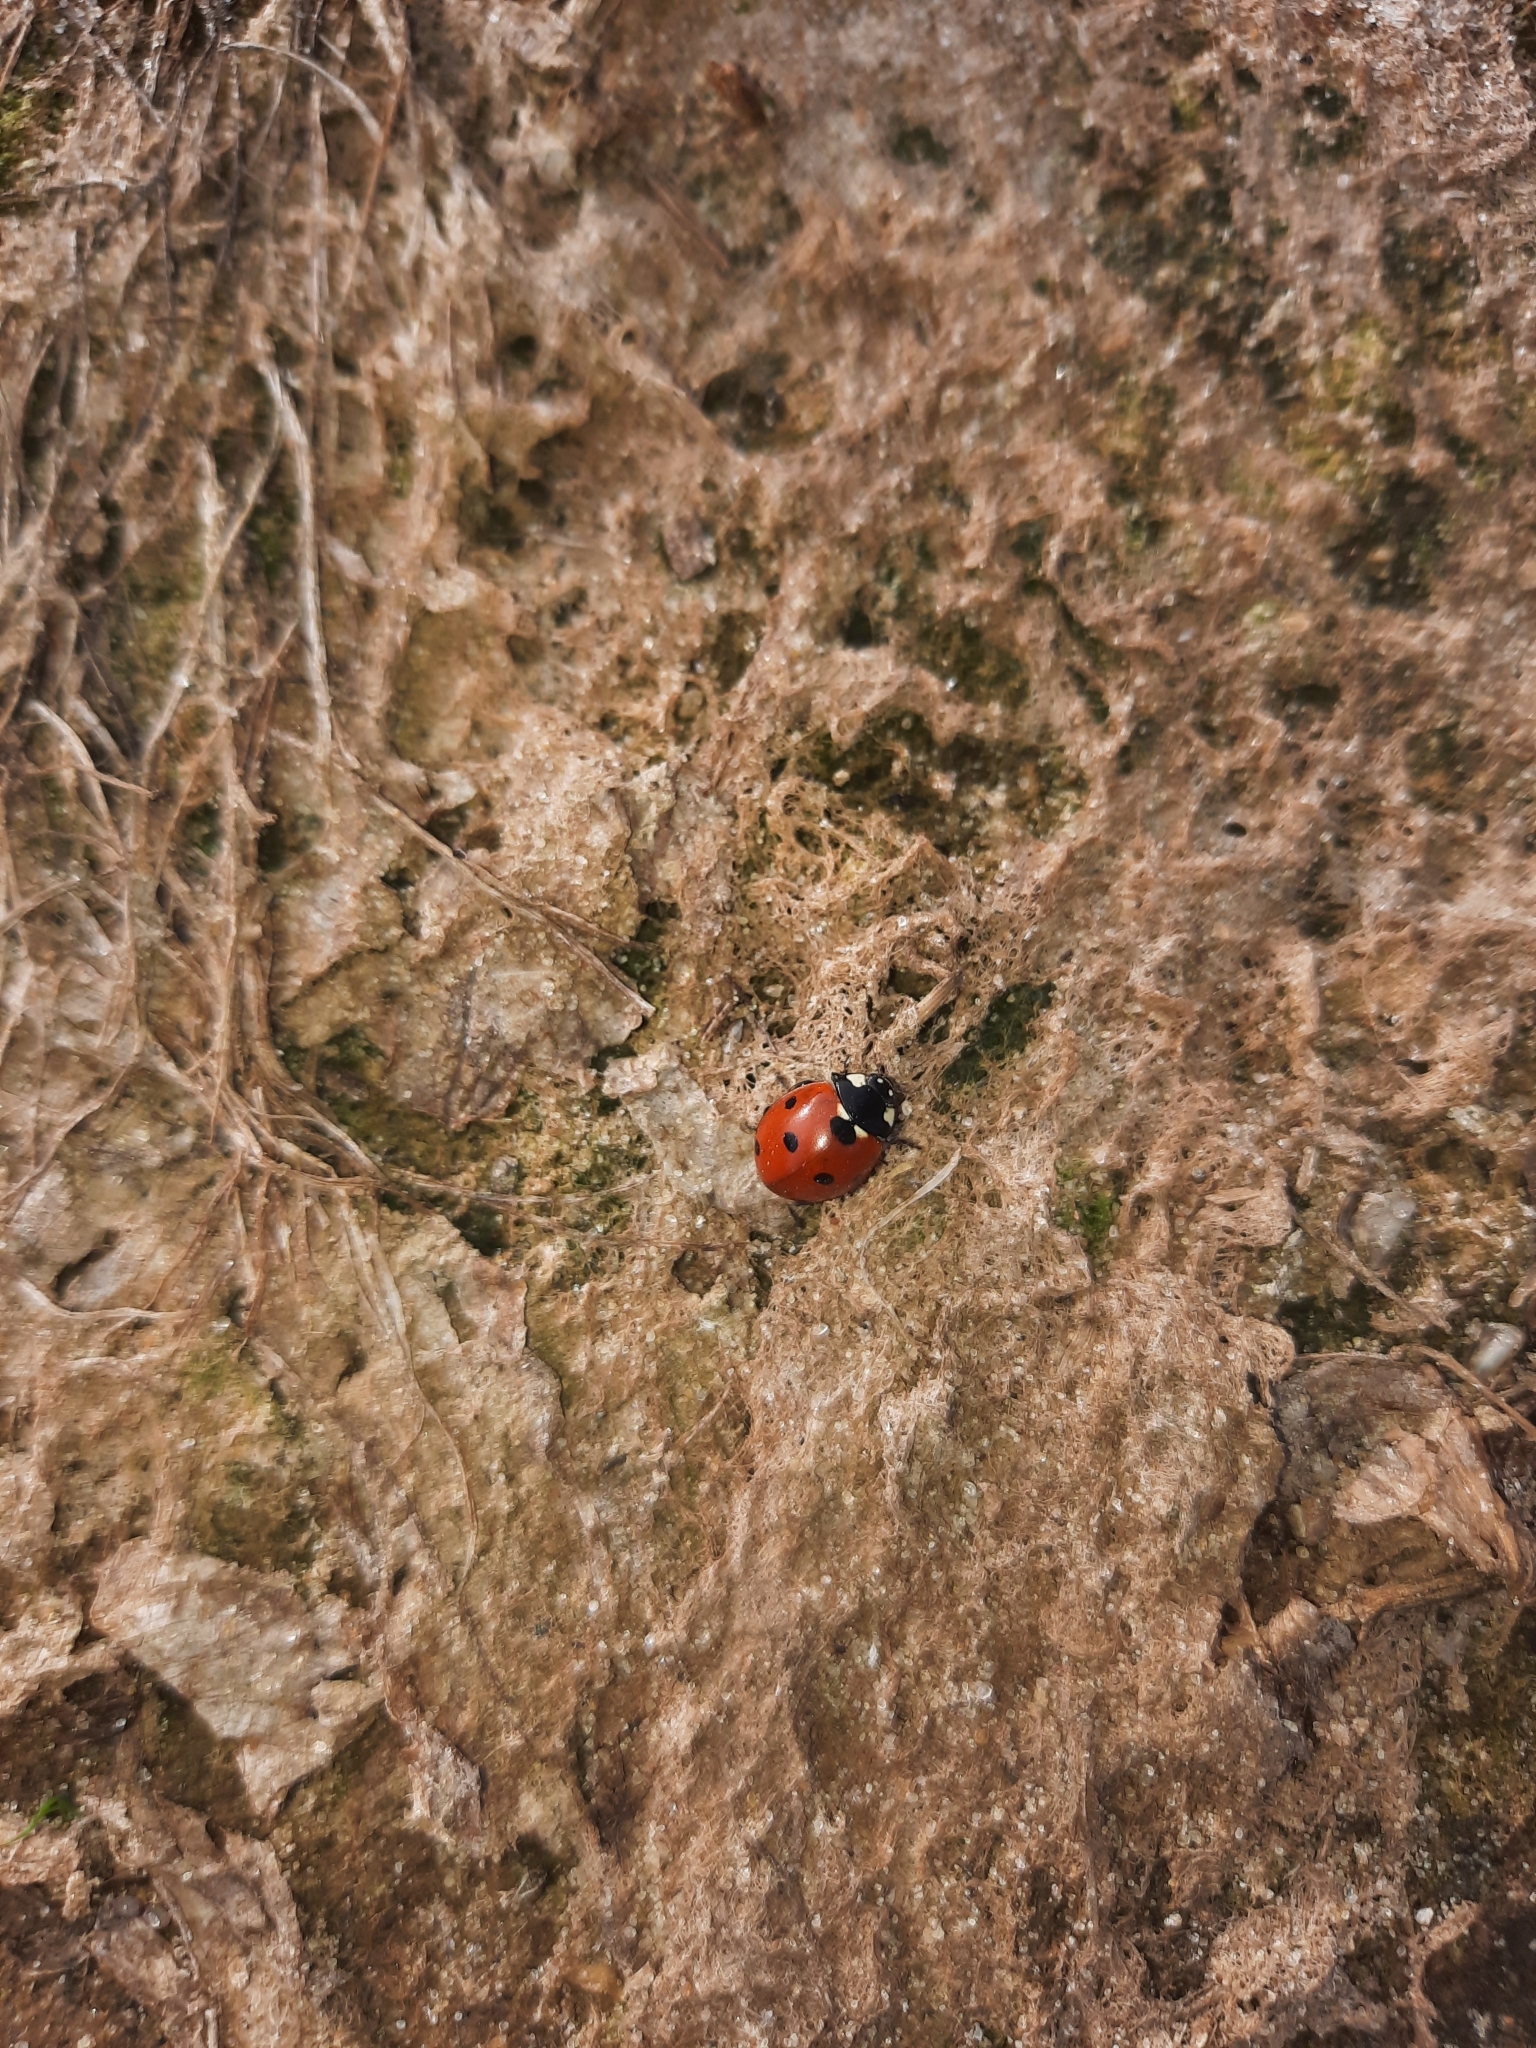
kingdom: Animalia
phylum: Arthropoda
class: Insecta
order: Coleoptera
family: Coccinellidae
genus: Coccinella
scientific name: Coccinella septempunctata
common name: Sevenspotted lady beetle
